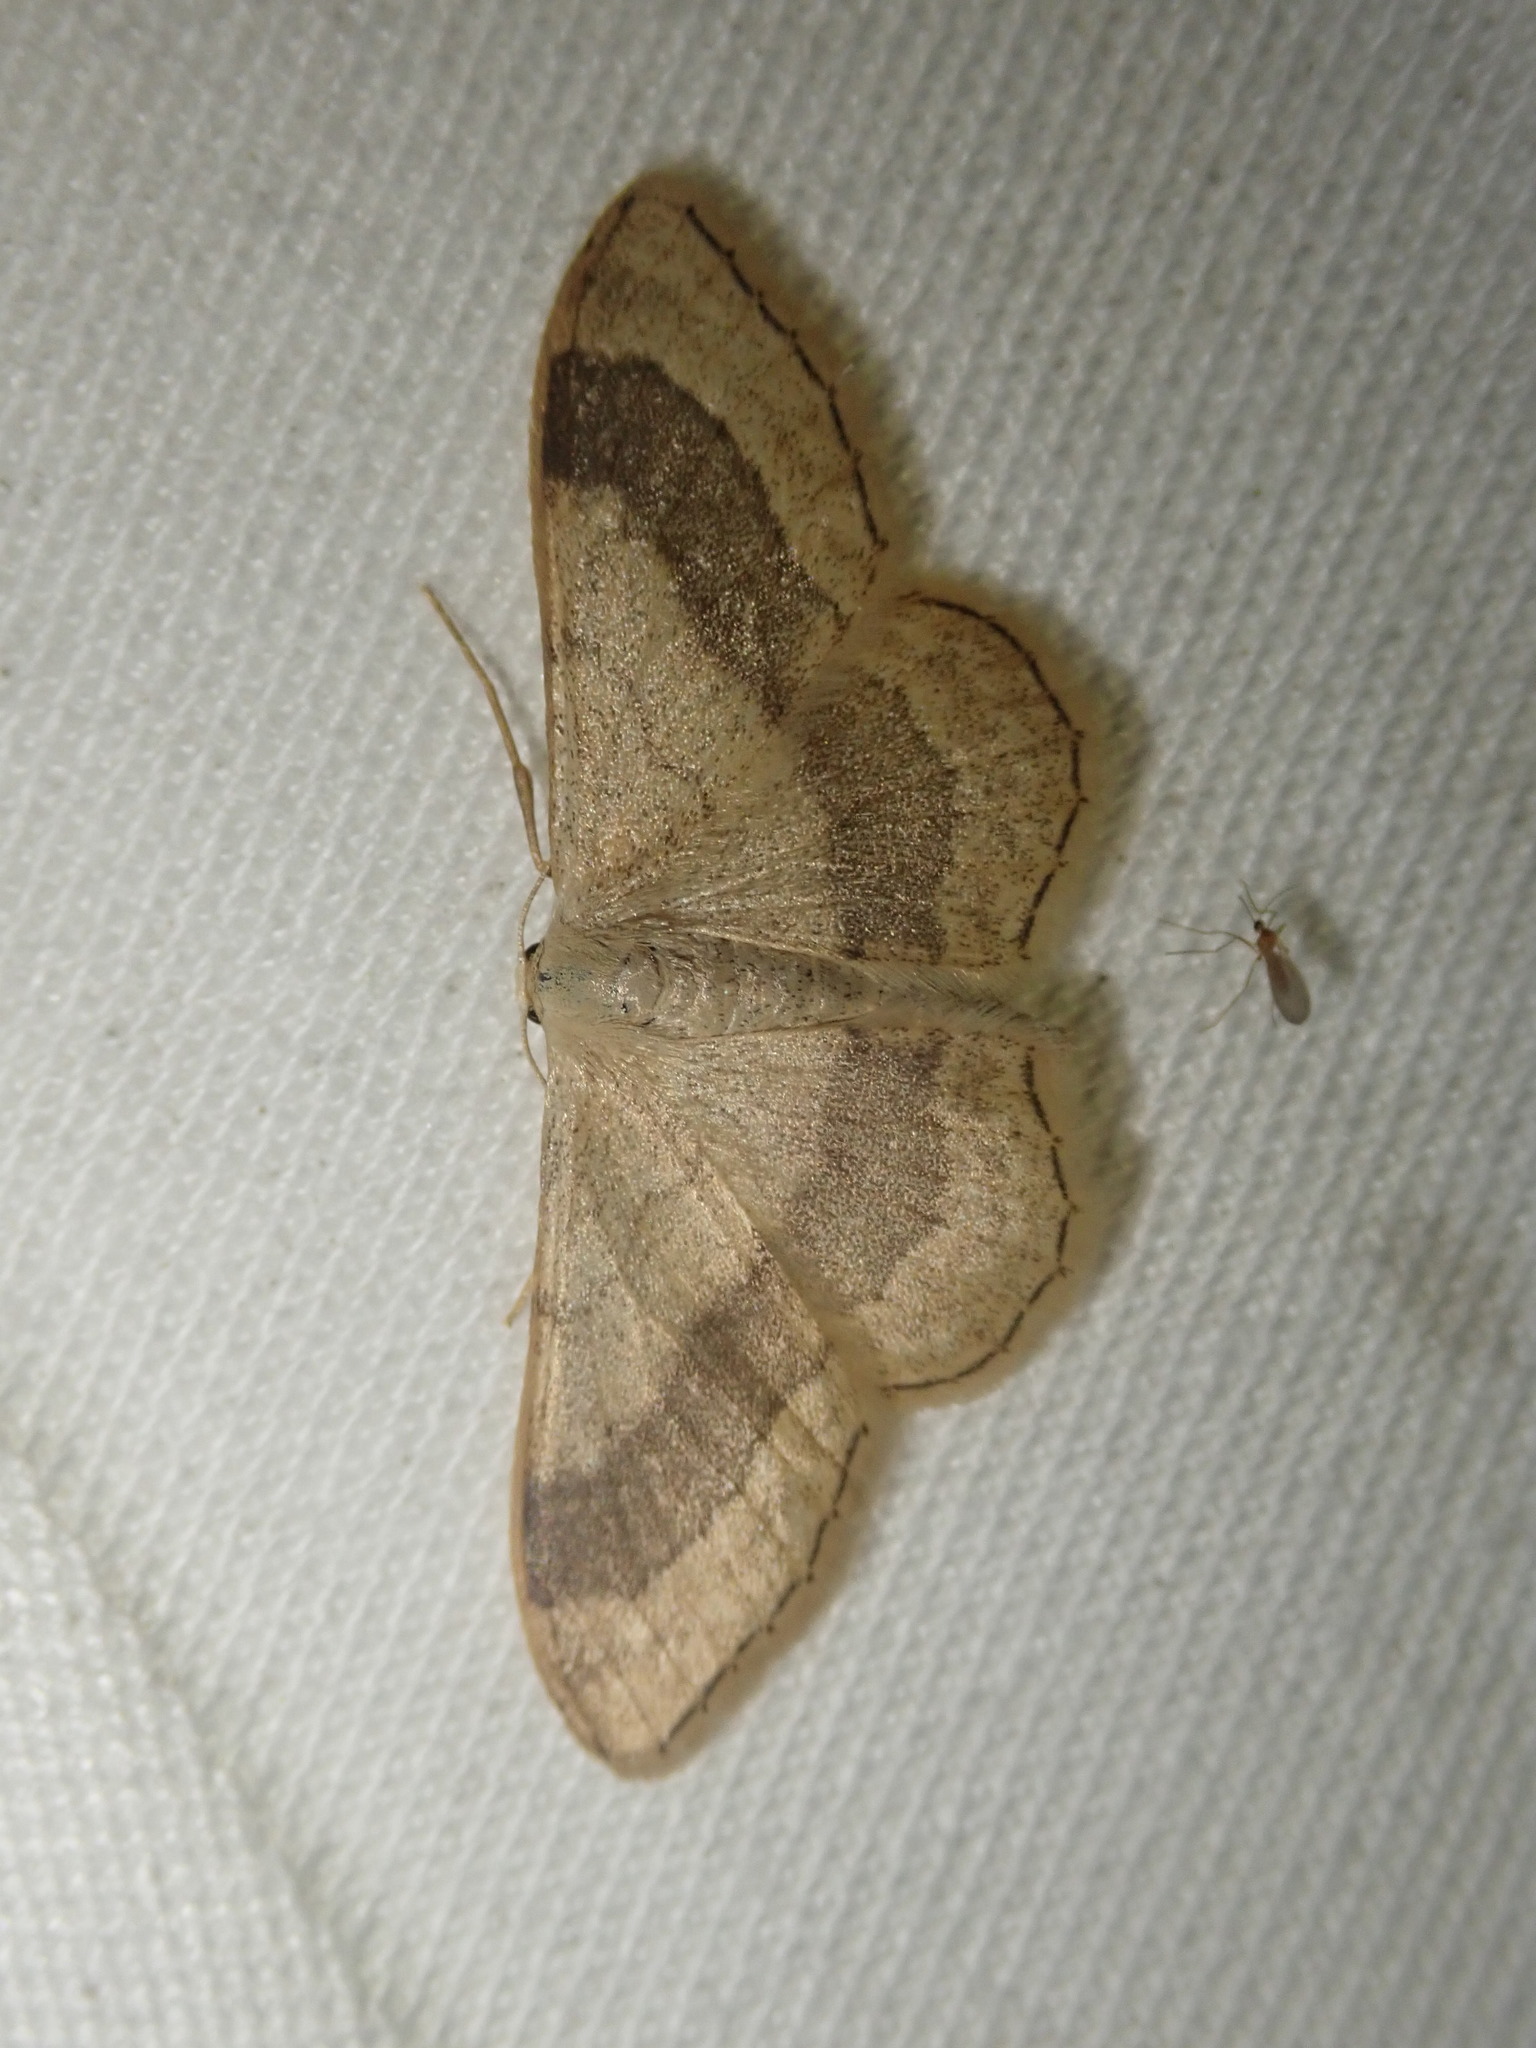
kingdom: Animalia
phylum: Arthropoda
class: Insecta
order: Lepidoptera
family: Geometridae
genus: Idaea
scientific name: Idaea aversata
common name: Riband wave
